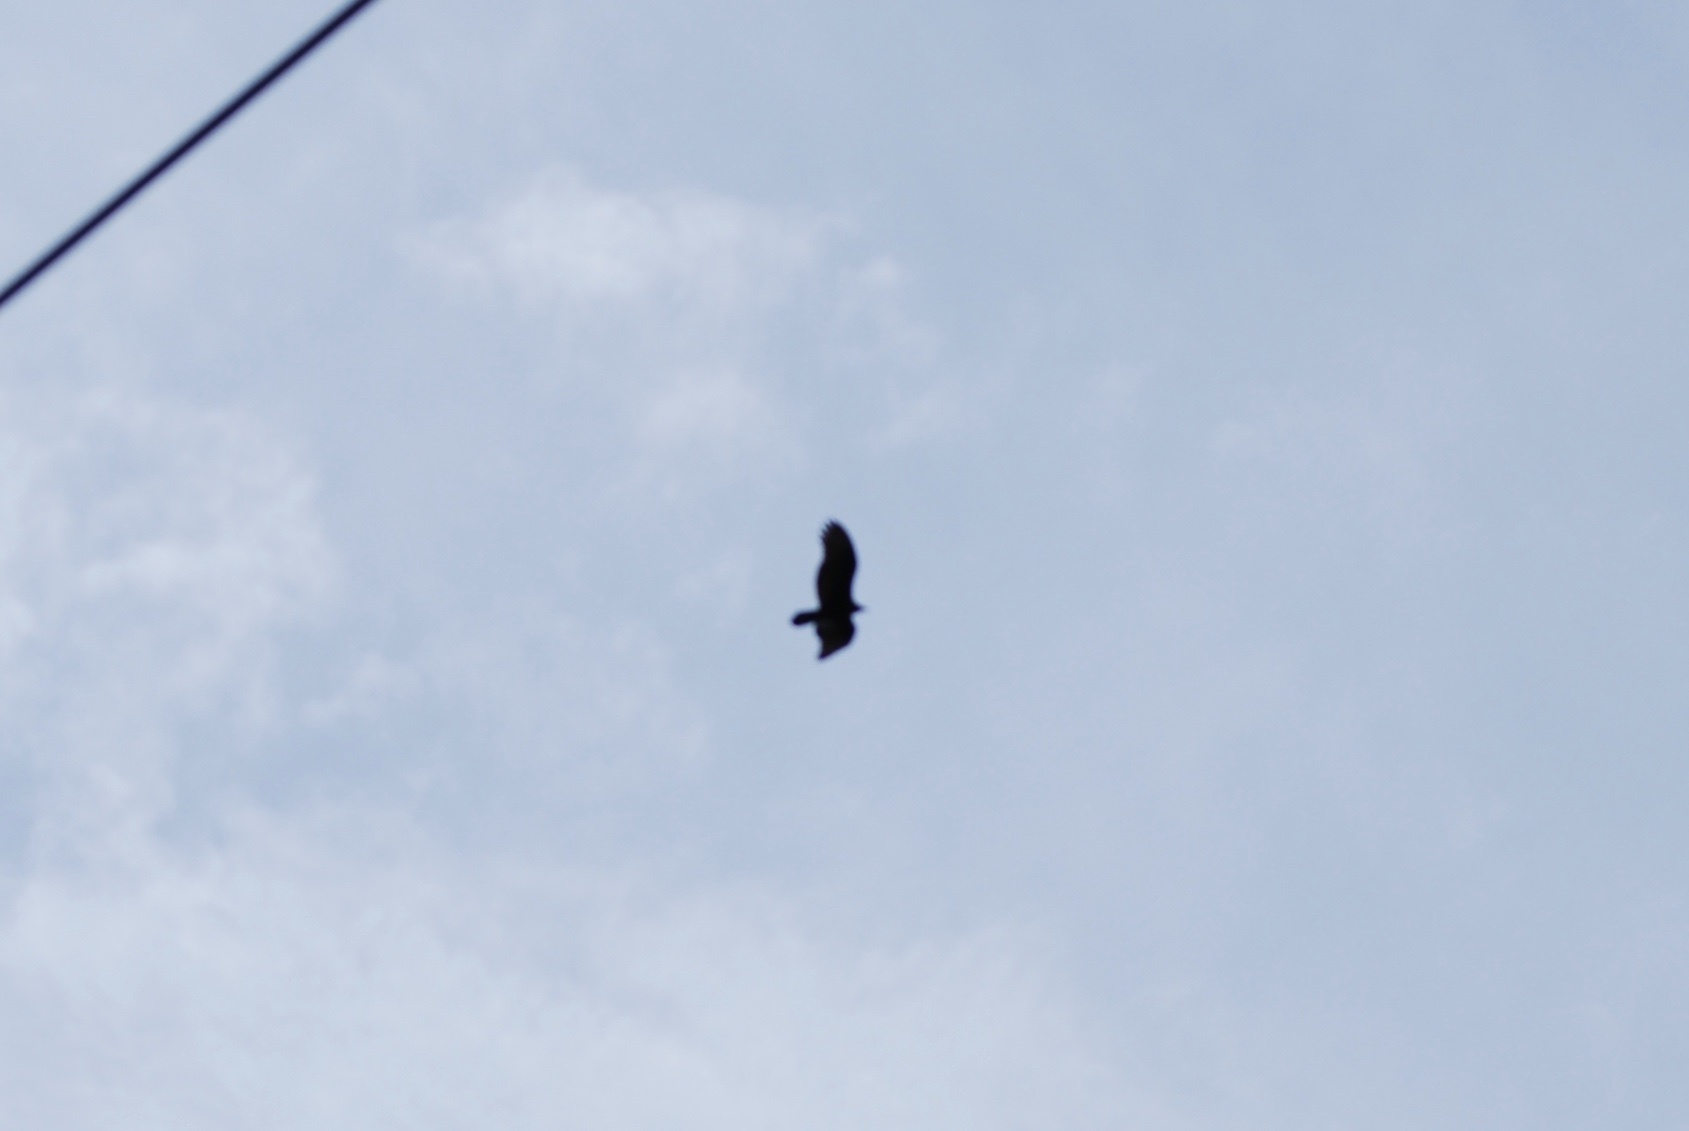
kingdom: Animalia
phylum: Chordata
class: Aves
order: Accipitriformes
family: Cathartidae
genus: Cathartes
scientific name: Cathartes aura
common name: Turkey vulture
